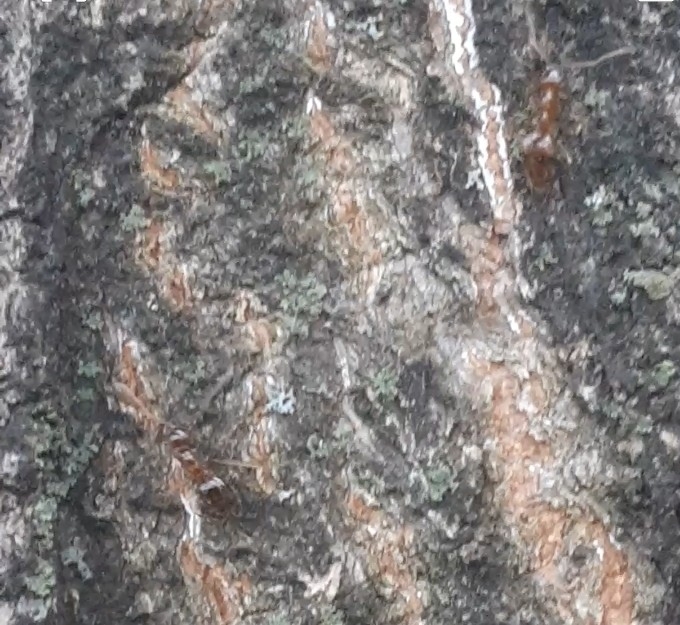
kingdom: Animalia
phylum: Arthropoda
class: Insecta
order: Hymenoptera
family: Formicidae
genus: Prenolepis
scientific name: Prenolepis imparis
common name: Small honey ant
